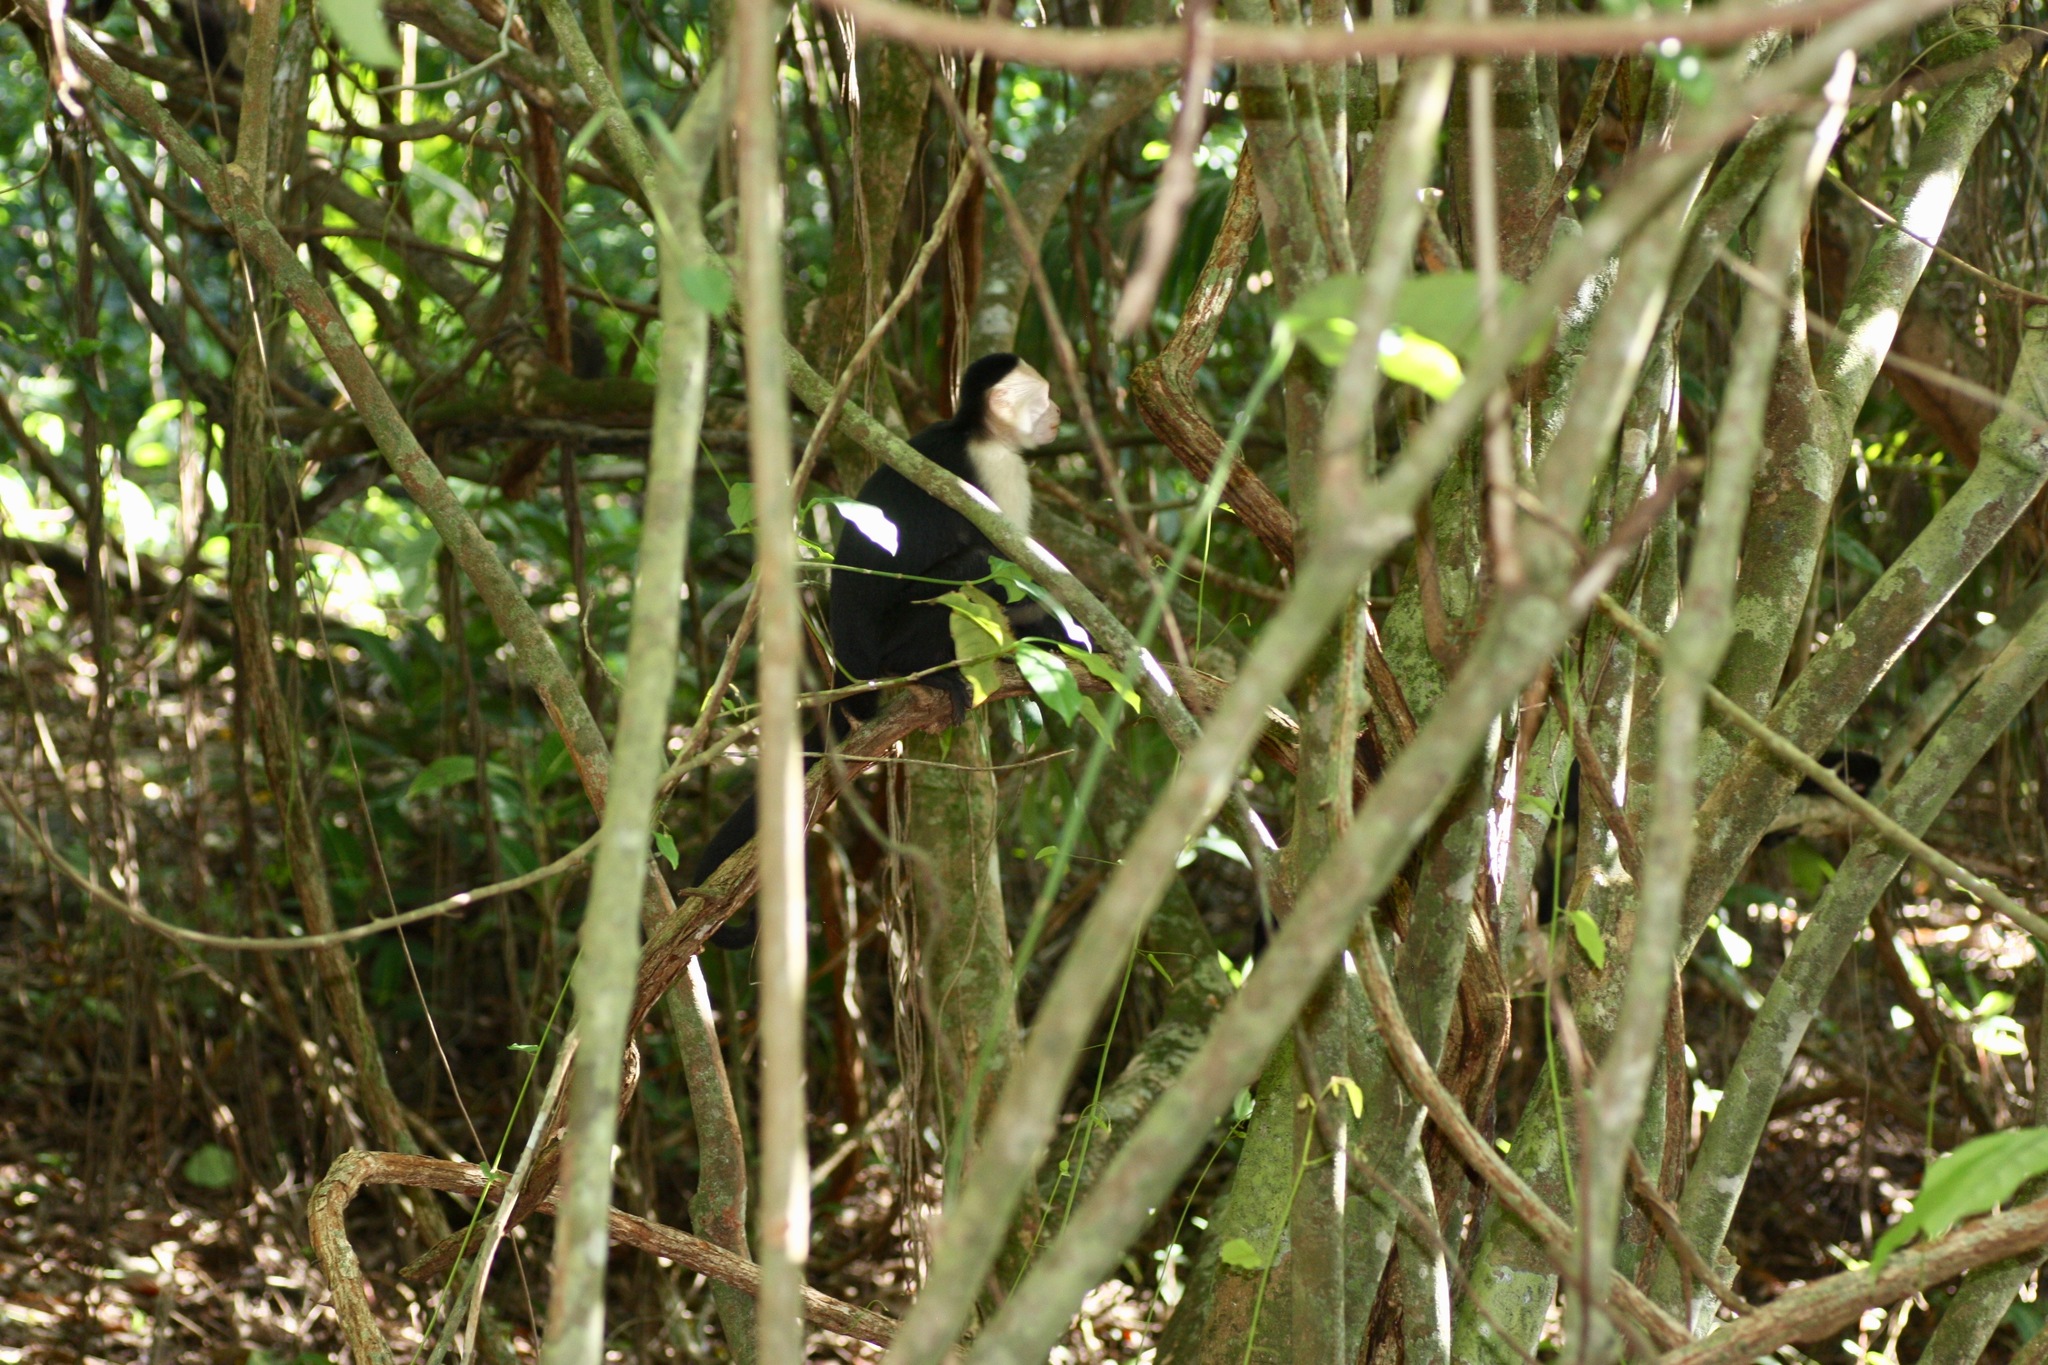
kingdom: Animalia
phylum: Chordata
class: Mammalia
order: Primates
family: Cebidae
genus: Cebus
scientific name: Cebus imitator
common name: Panamanian white-faced capuchin
